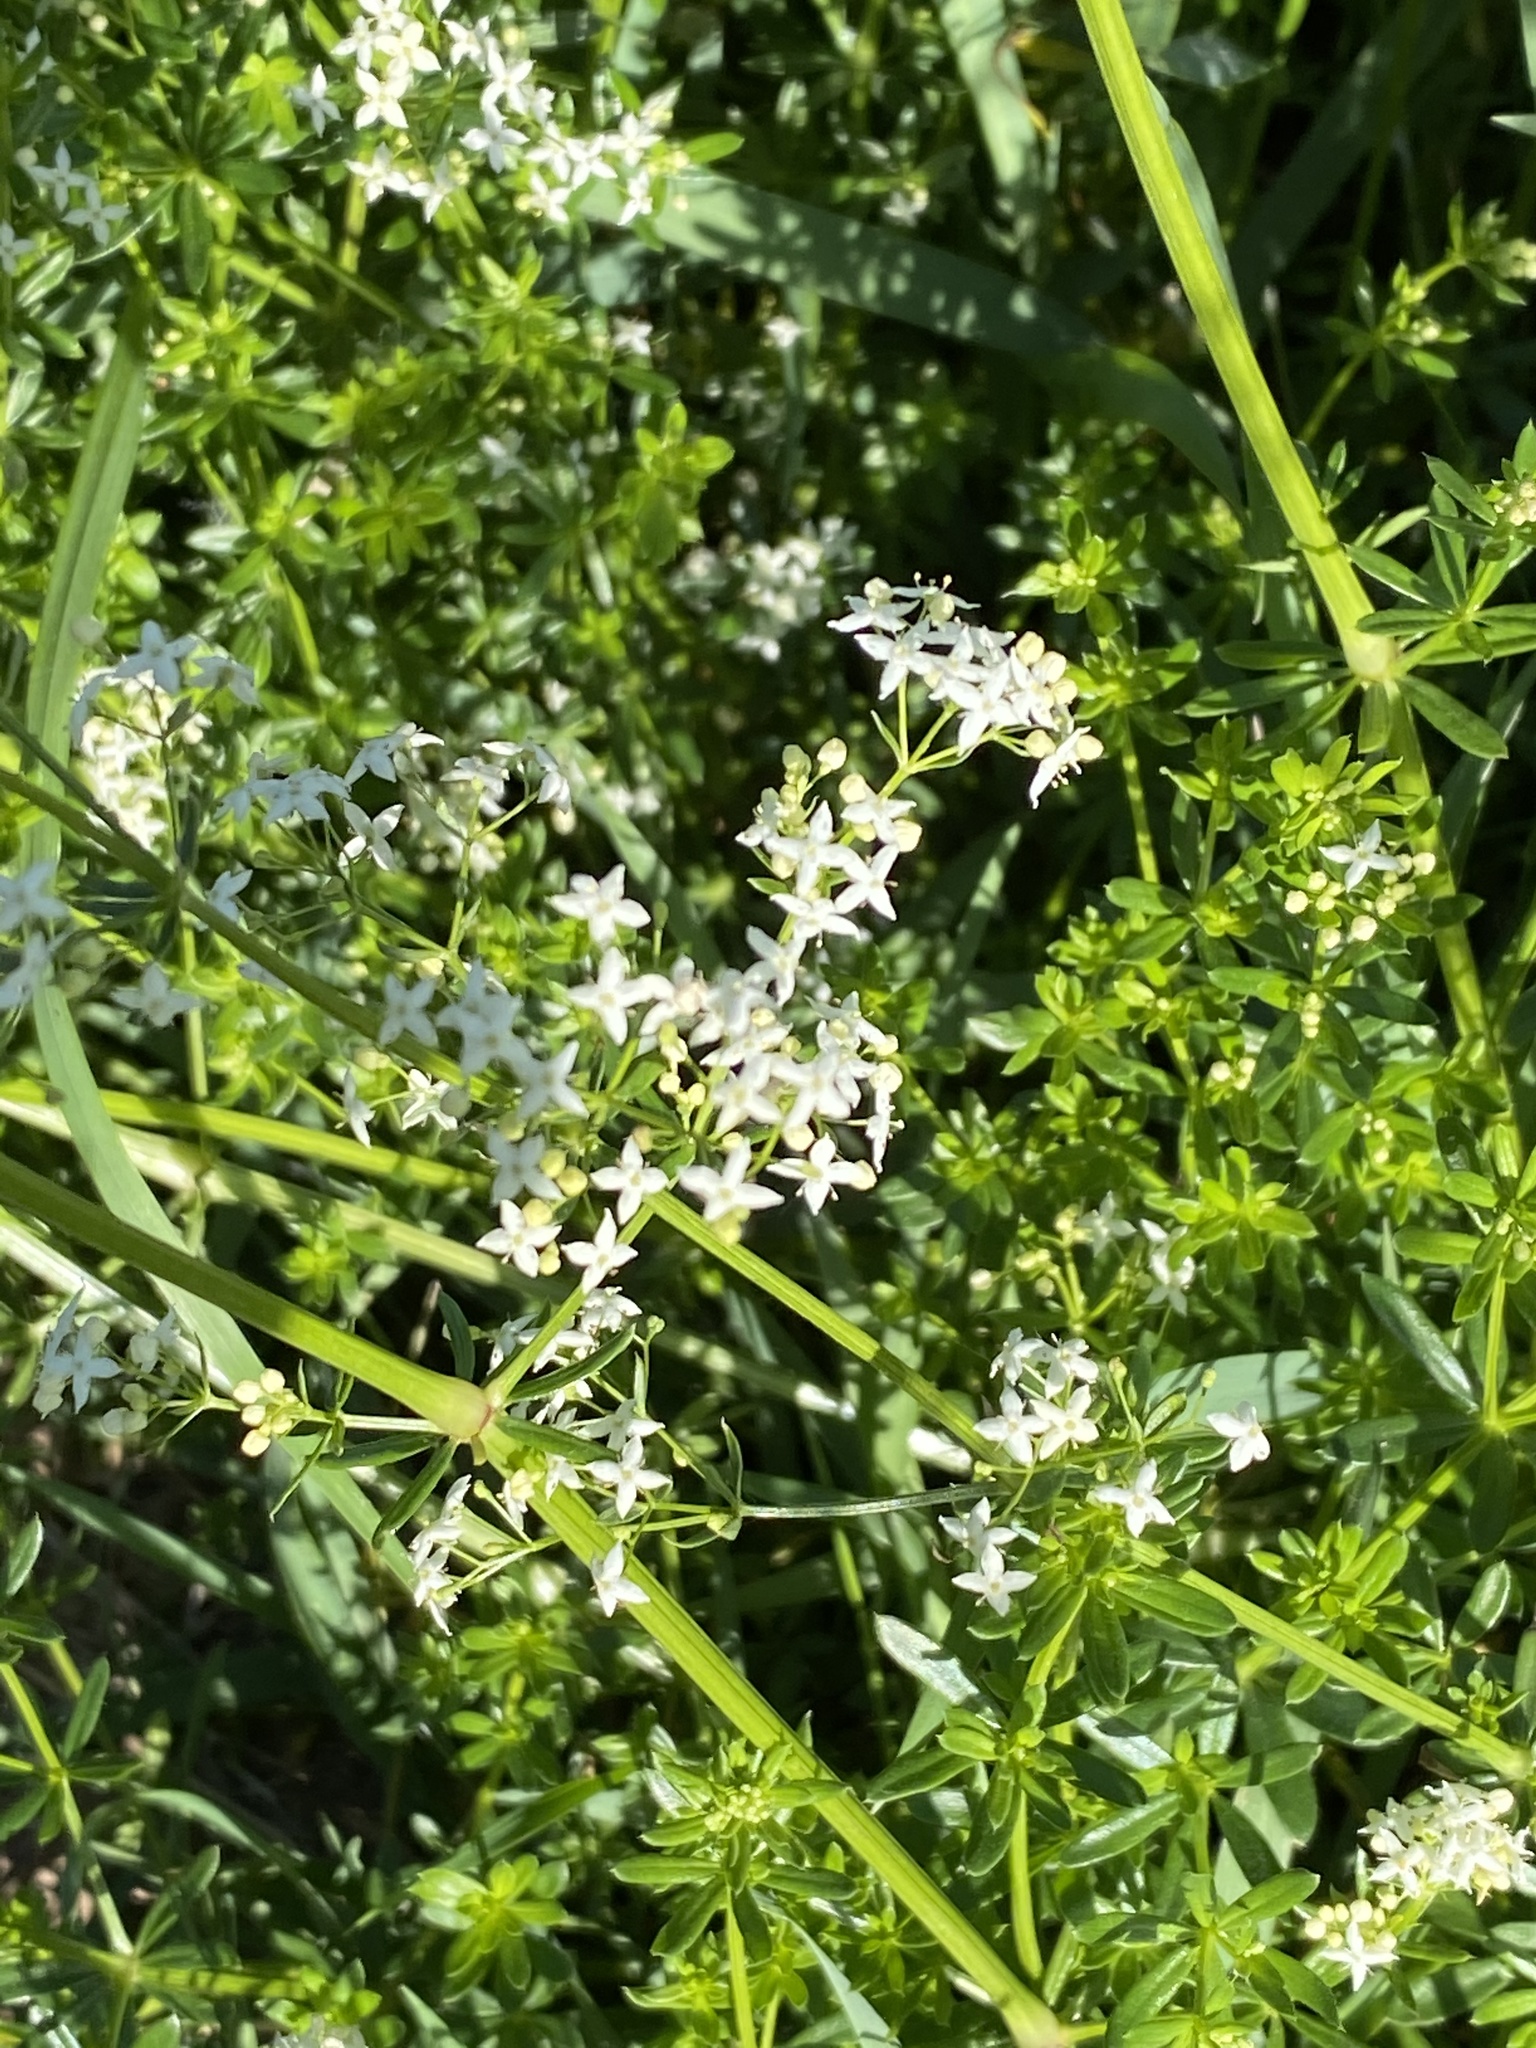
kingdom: Plantae
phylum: Tracheophyta
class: Magnoliopsida
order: Gentianales
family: Rubiaceae
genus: Galium
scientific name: Galium mollugo
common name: Hedge bedstraw
